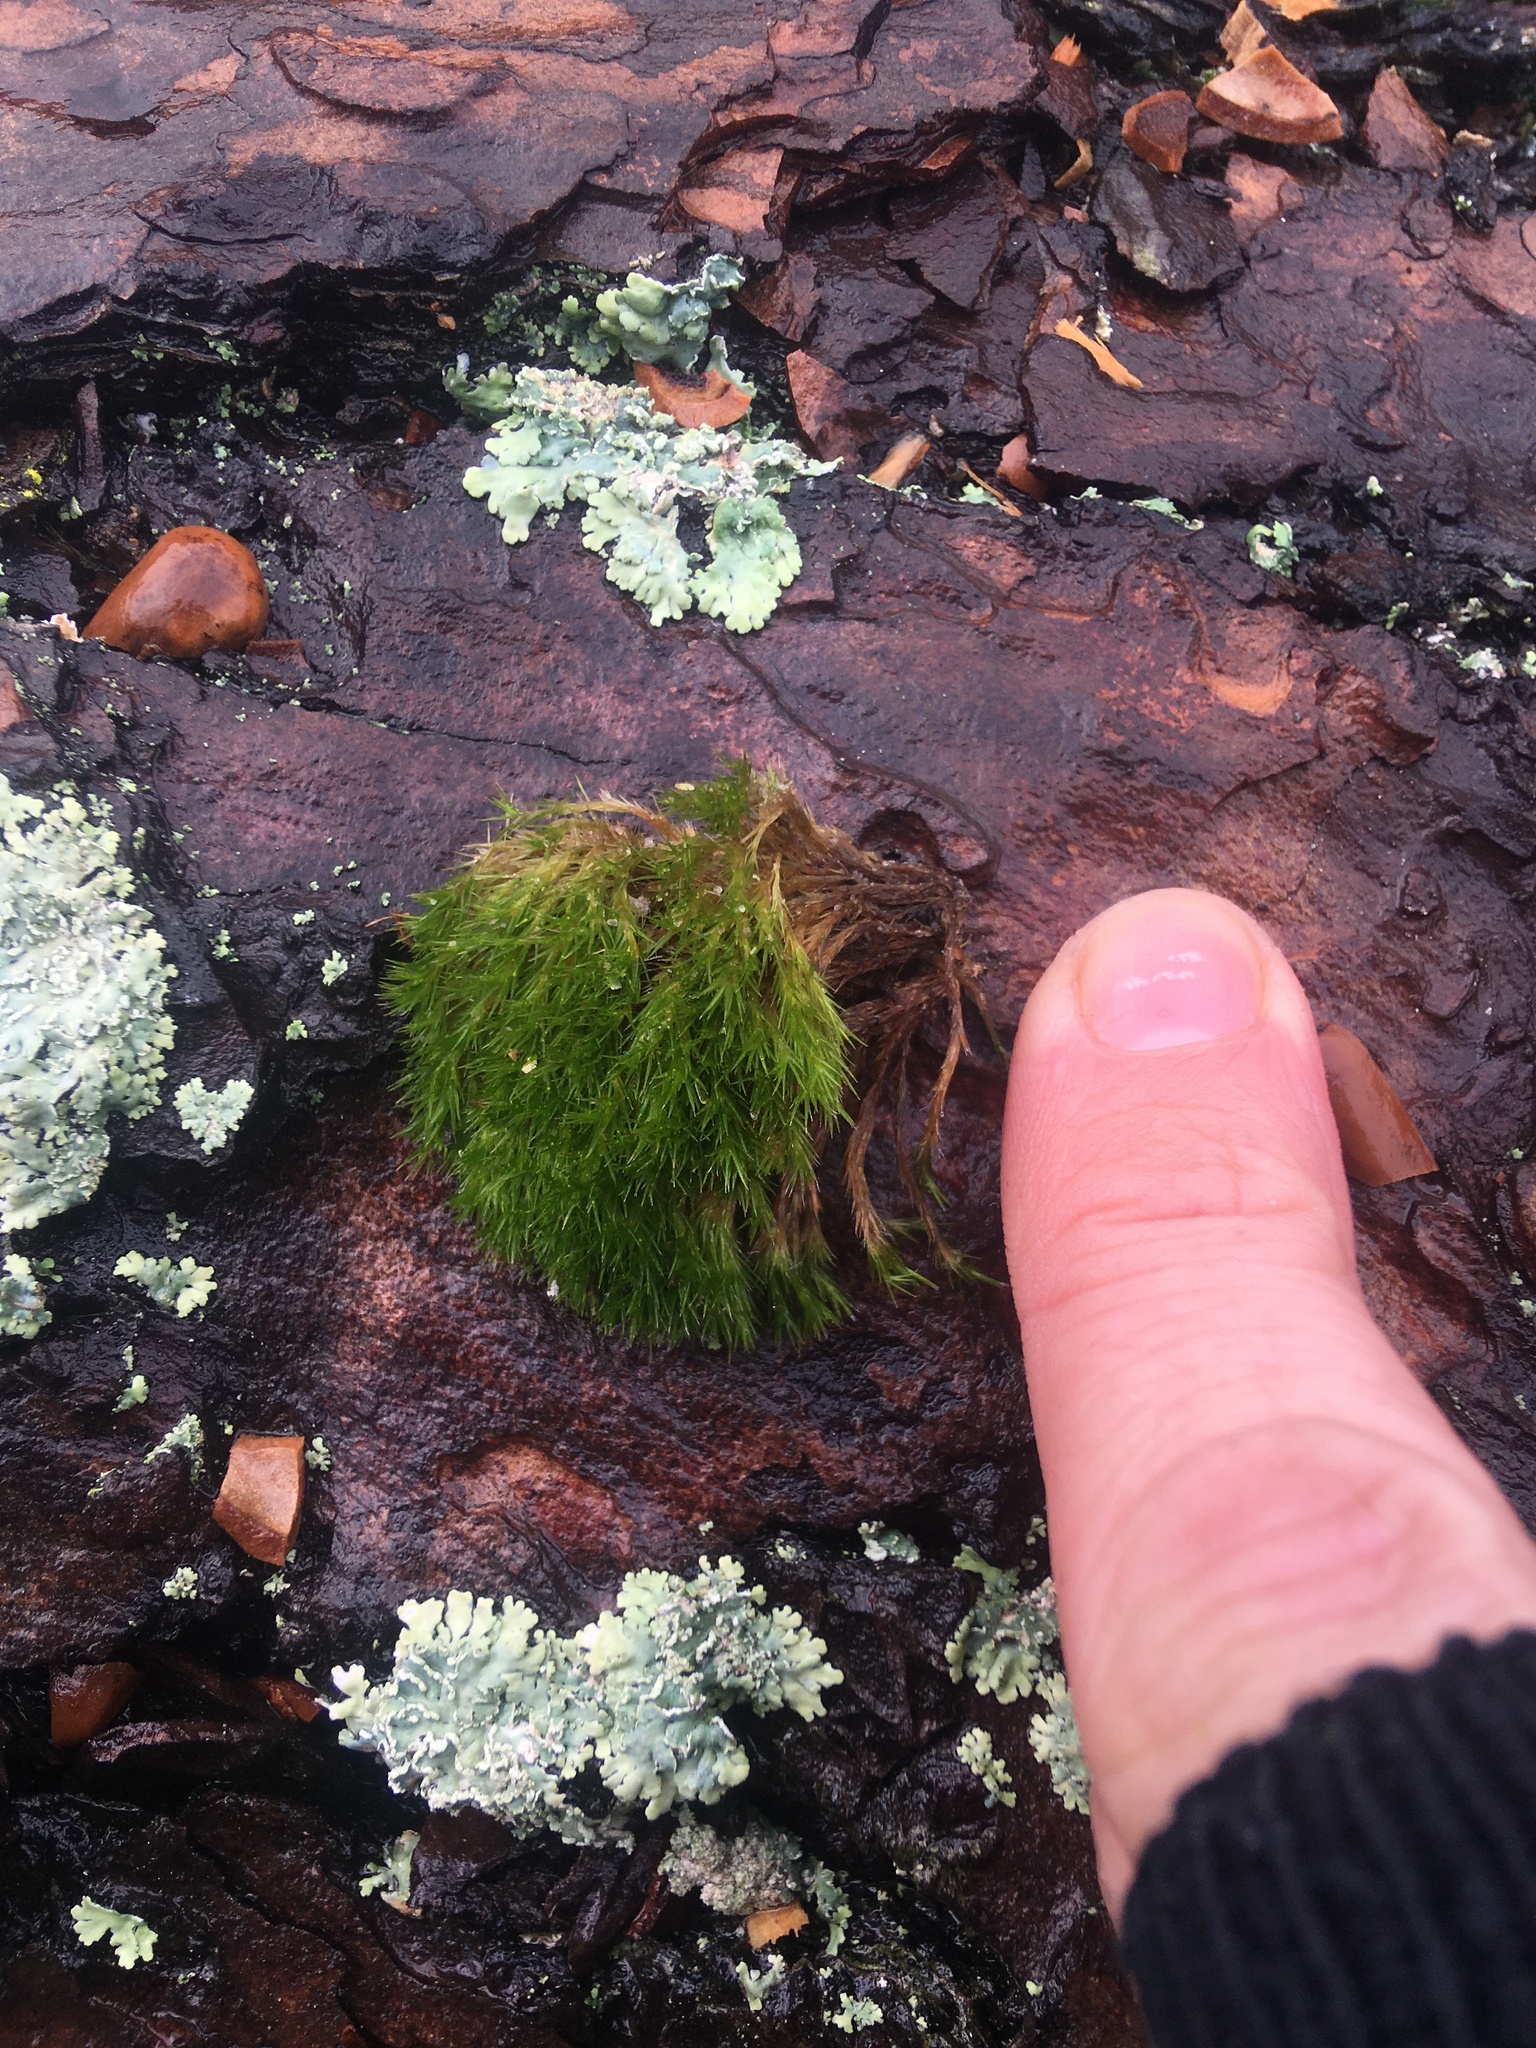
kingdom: Plantae
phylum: Bryophyta
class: Bryopsida
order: Dicranales
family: Leucobryaceae
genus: Campylopus
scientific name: Campylopus introflexus
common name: Heath star moss
